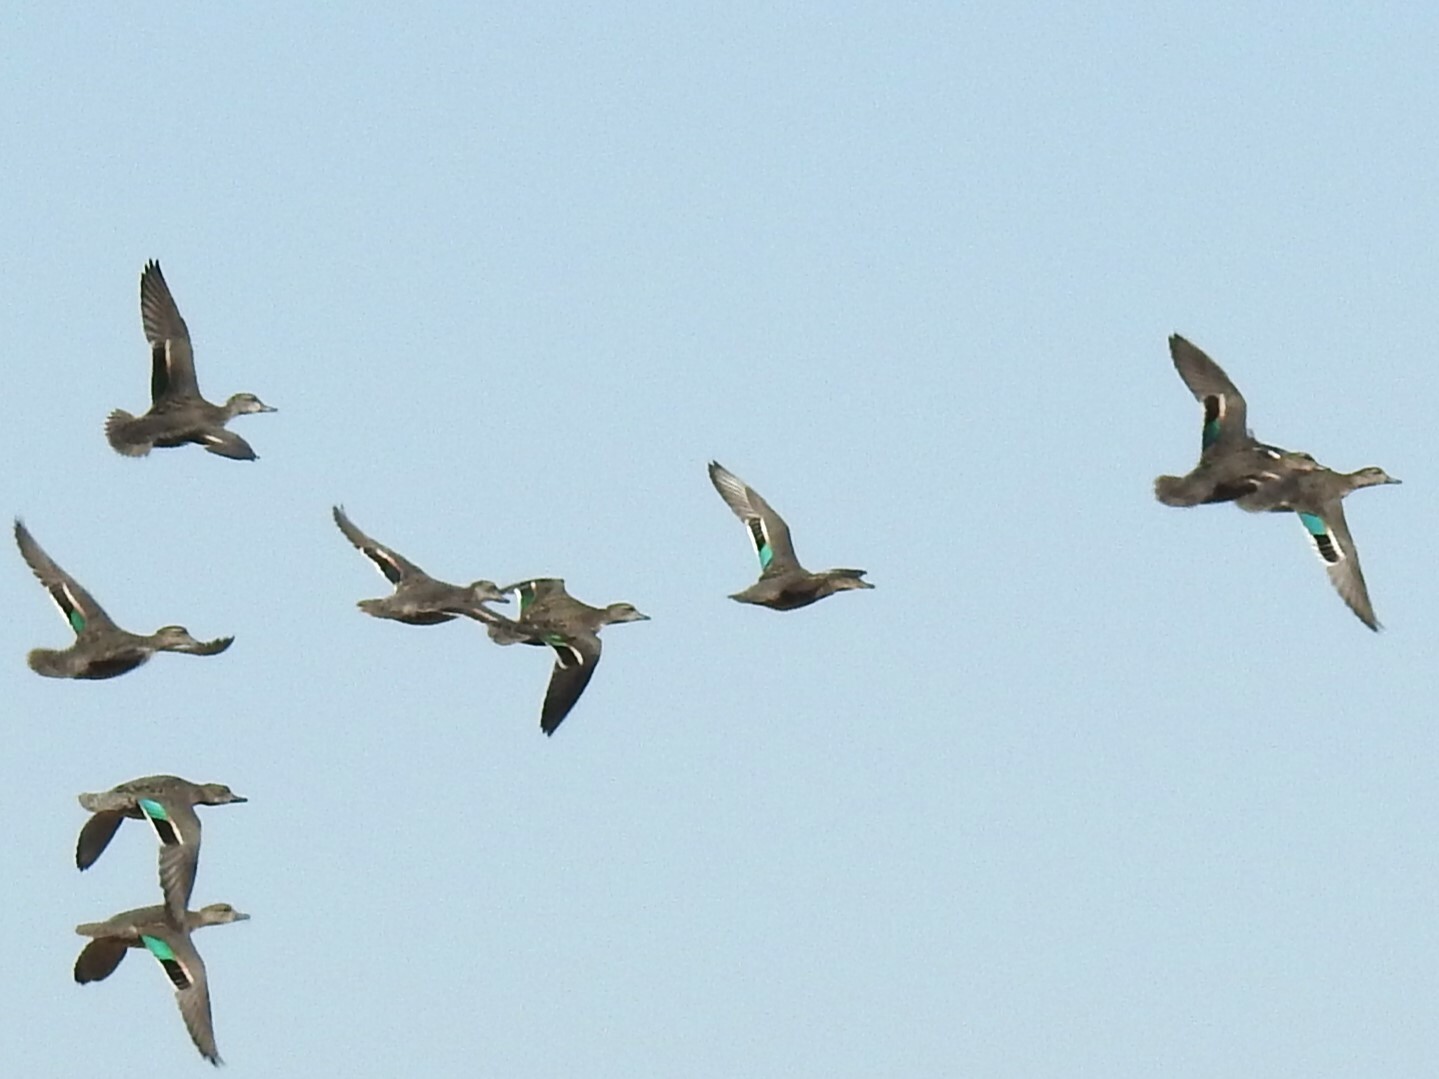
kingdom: Animalia
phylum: Chordata
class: Aves
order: Anseriformes
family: Anatidae
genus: Anas
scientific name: Anas crecca
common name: Eurasian teal
